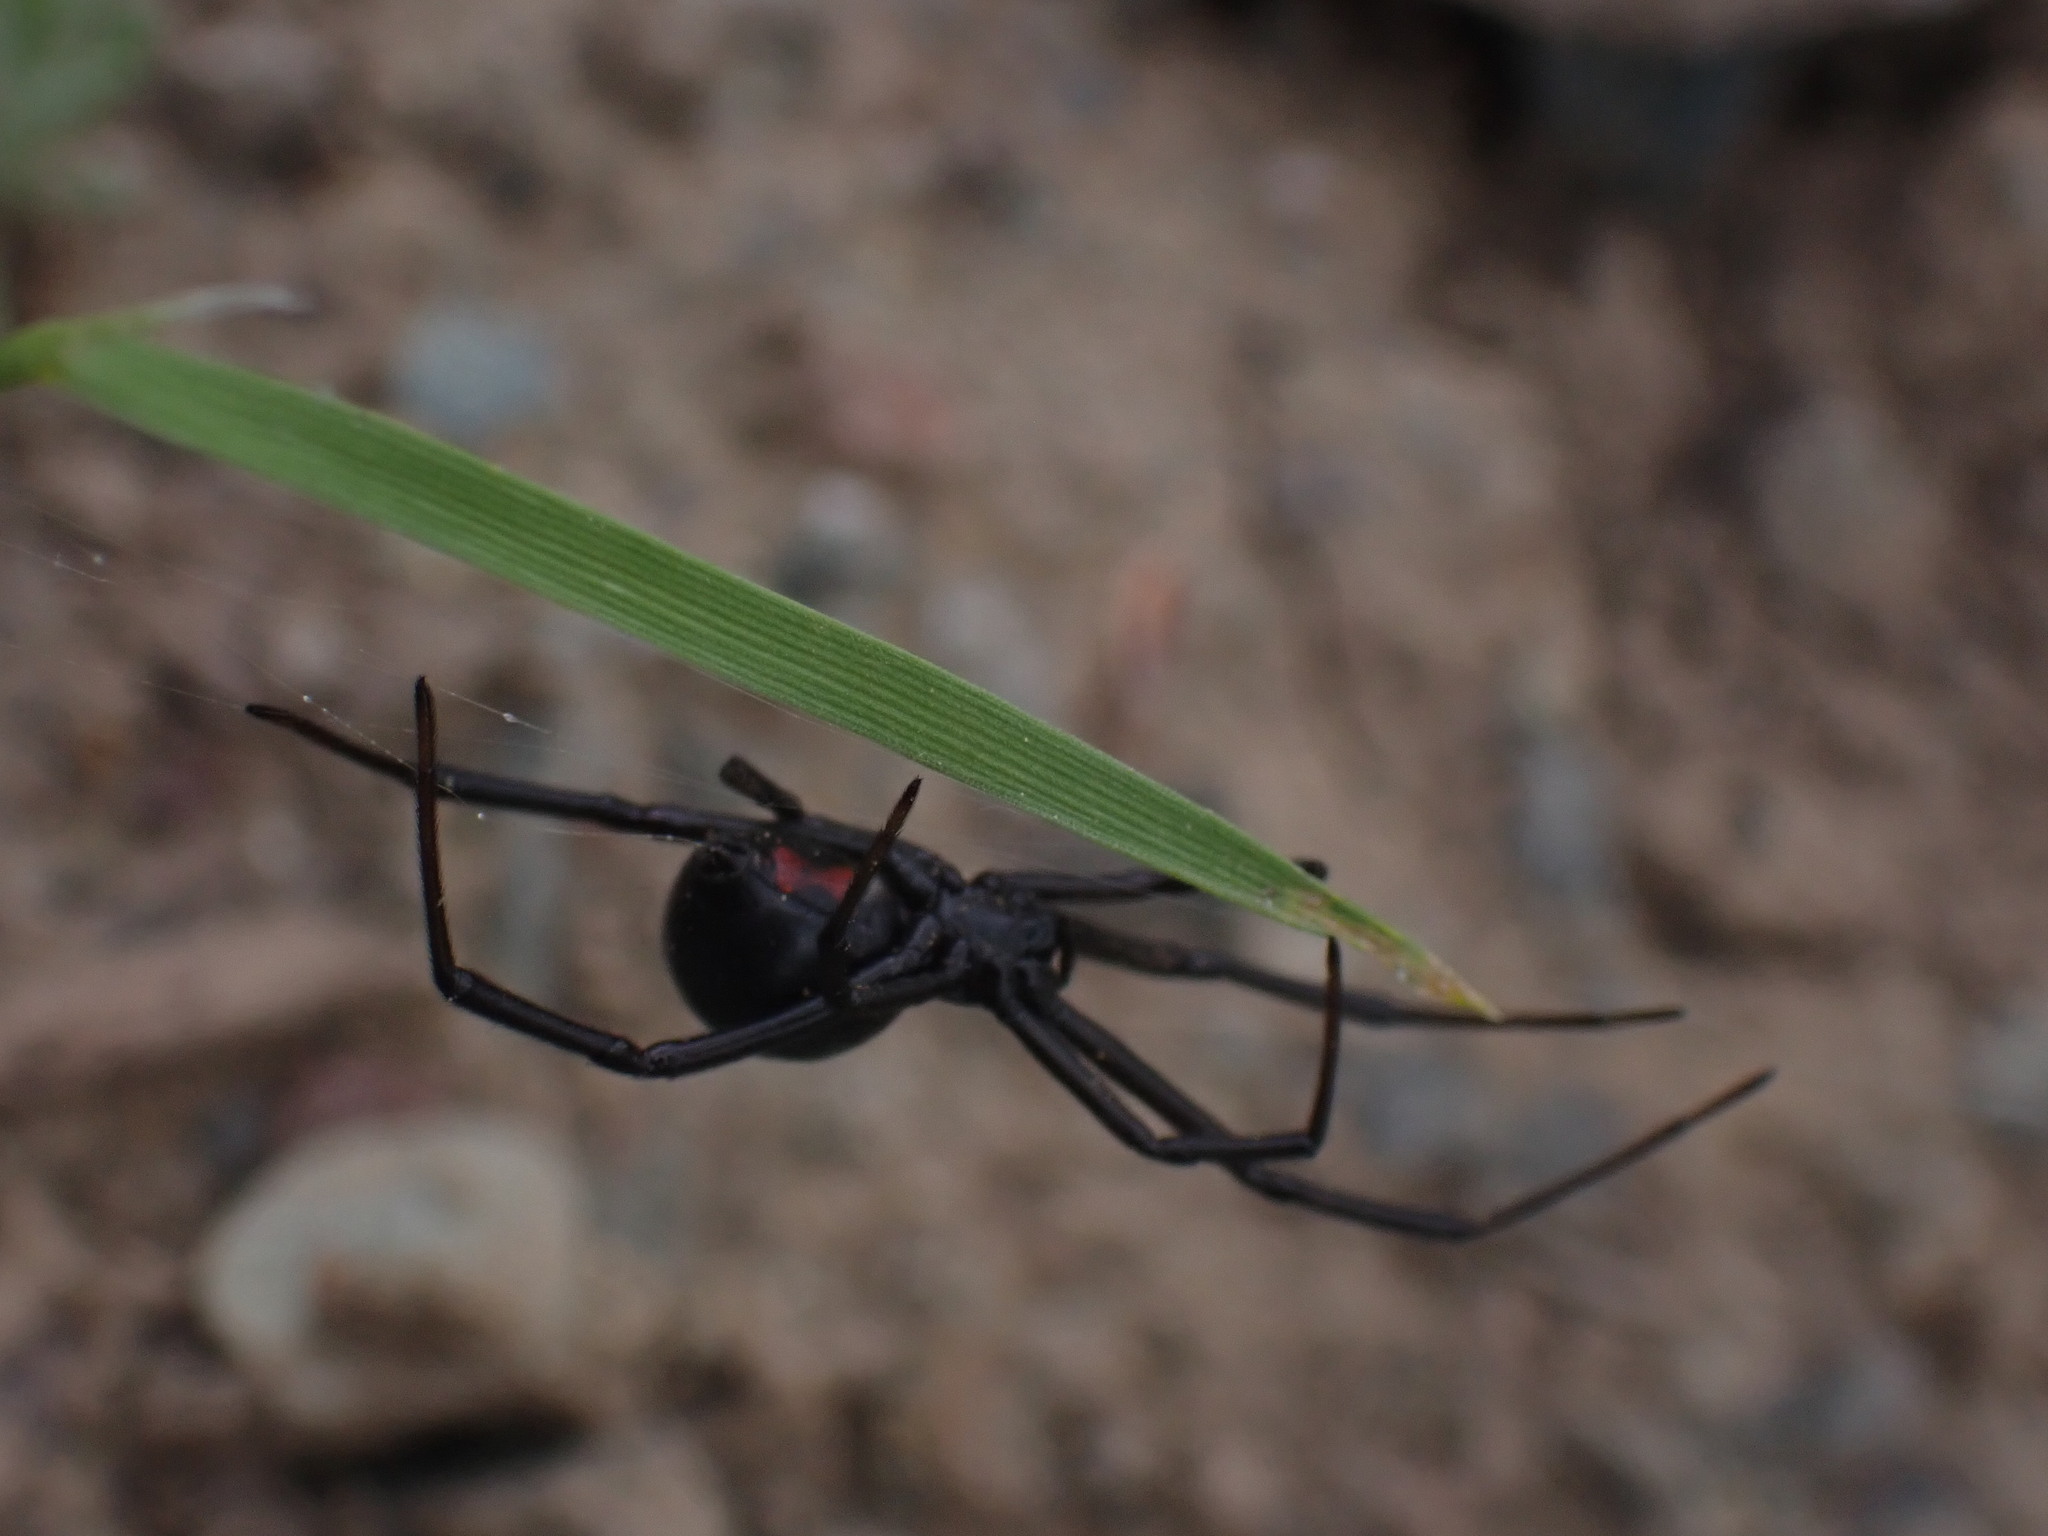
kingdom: Animalia
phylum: Arthropoda
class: Arachnida
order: Araneae
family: Theridiidae
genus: Latrodectus
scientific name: Latrodectus hesperus
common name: Western black widow
